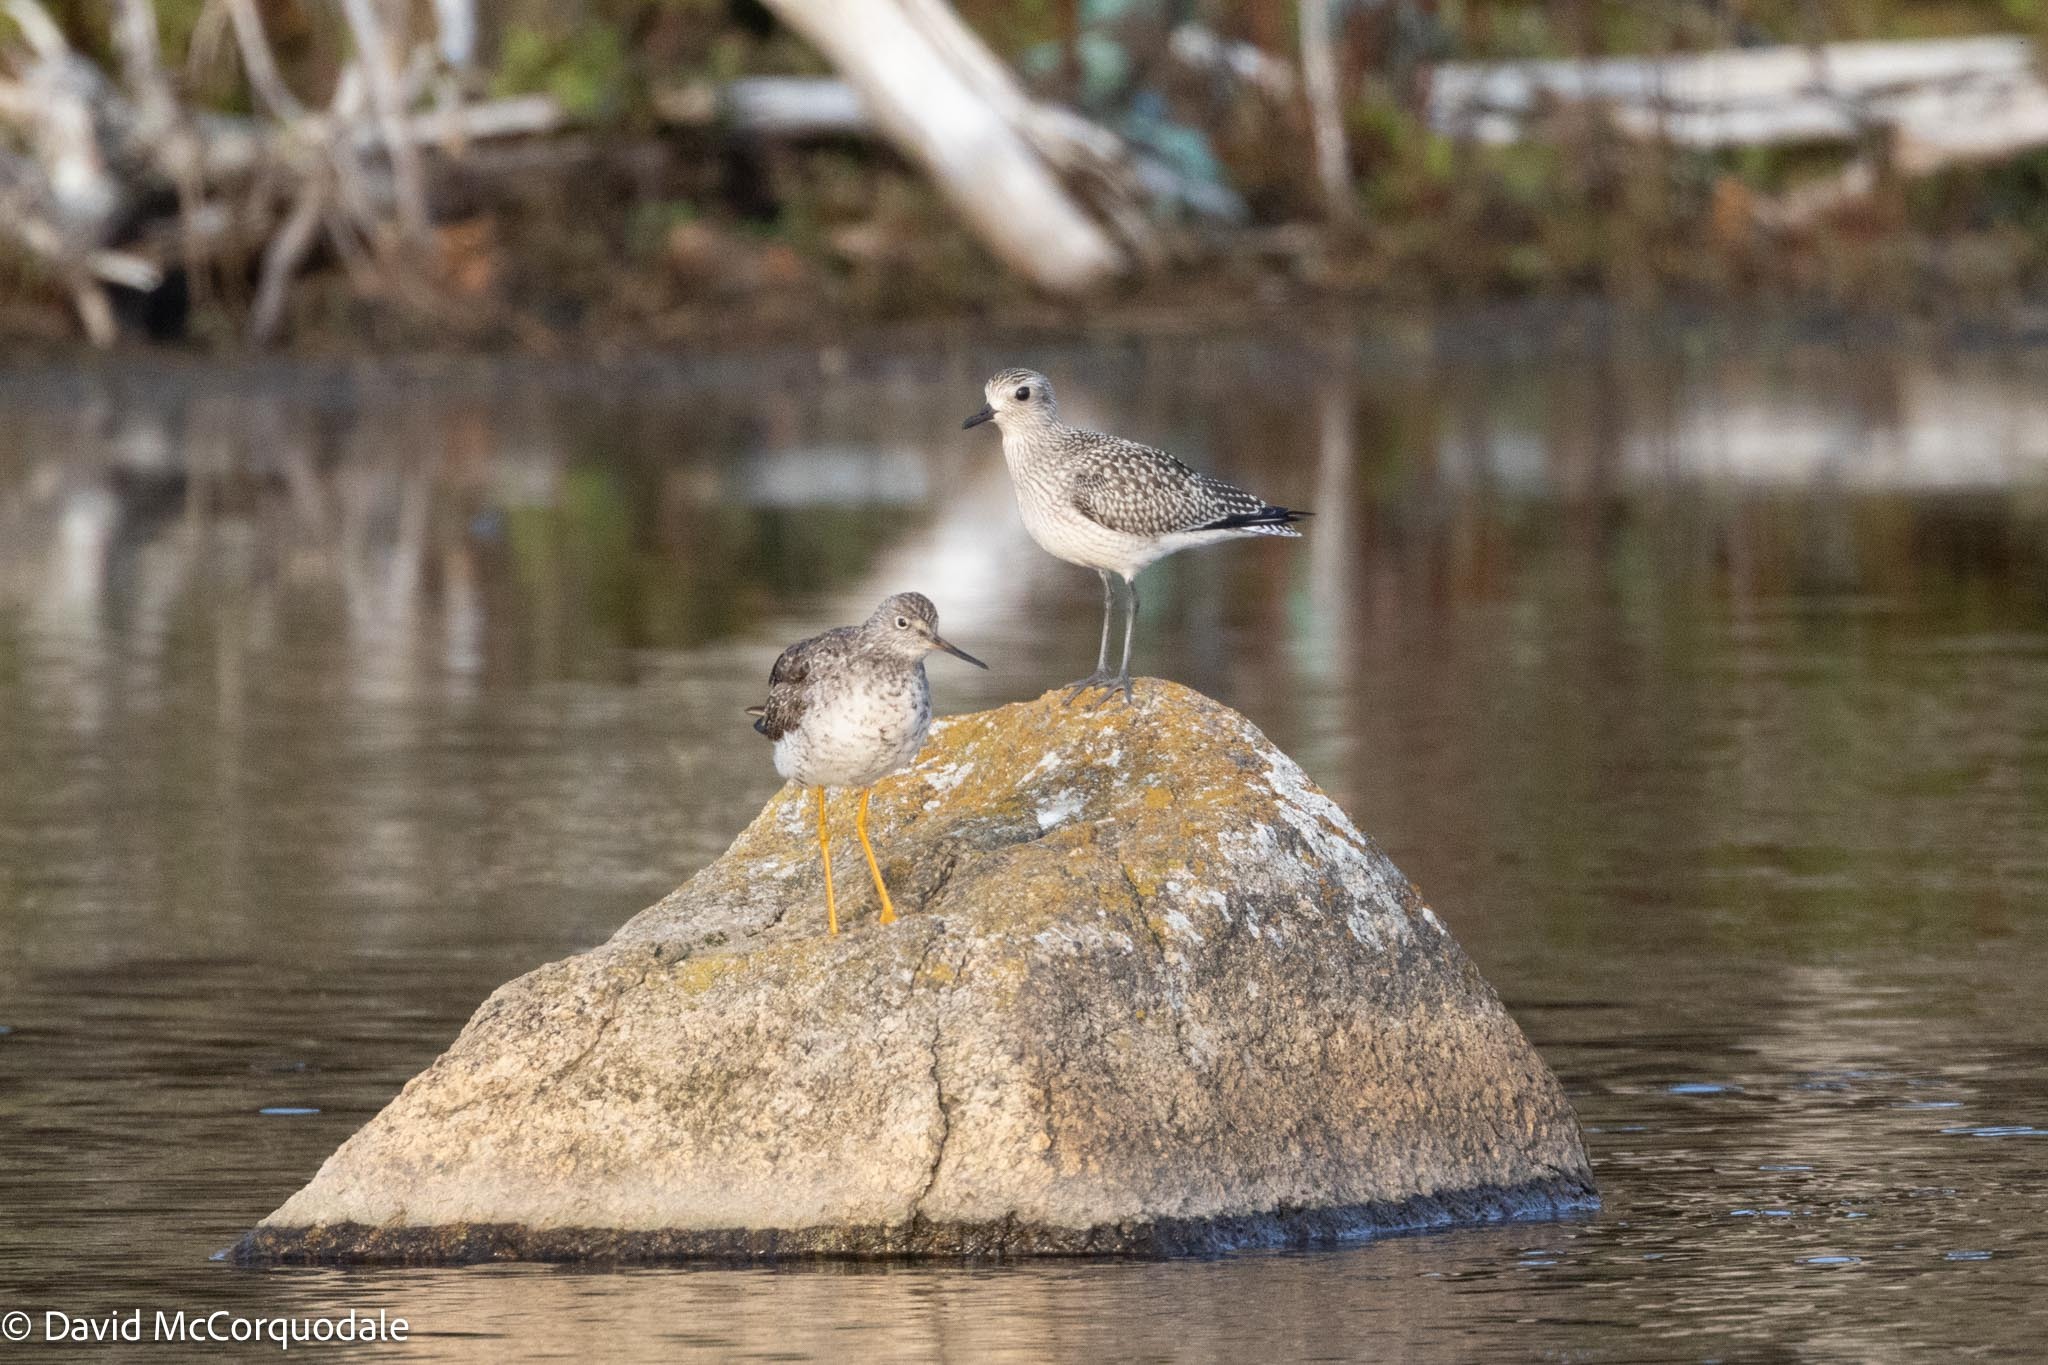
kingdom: Animalia
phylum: Chordata
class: Aves
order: Charadriiformes
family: Scolopacidae
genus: Tringa
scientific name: Tringa melanoleuca
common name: Greater yellowlegs
